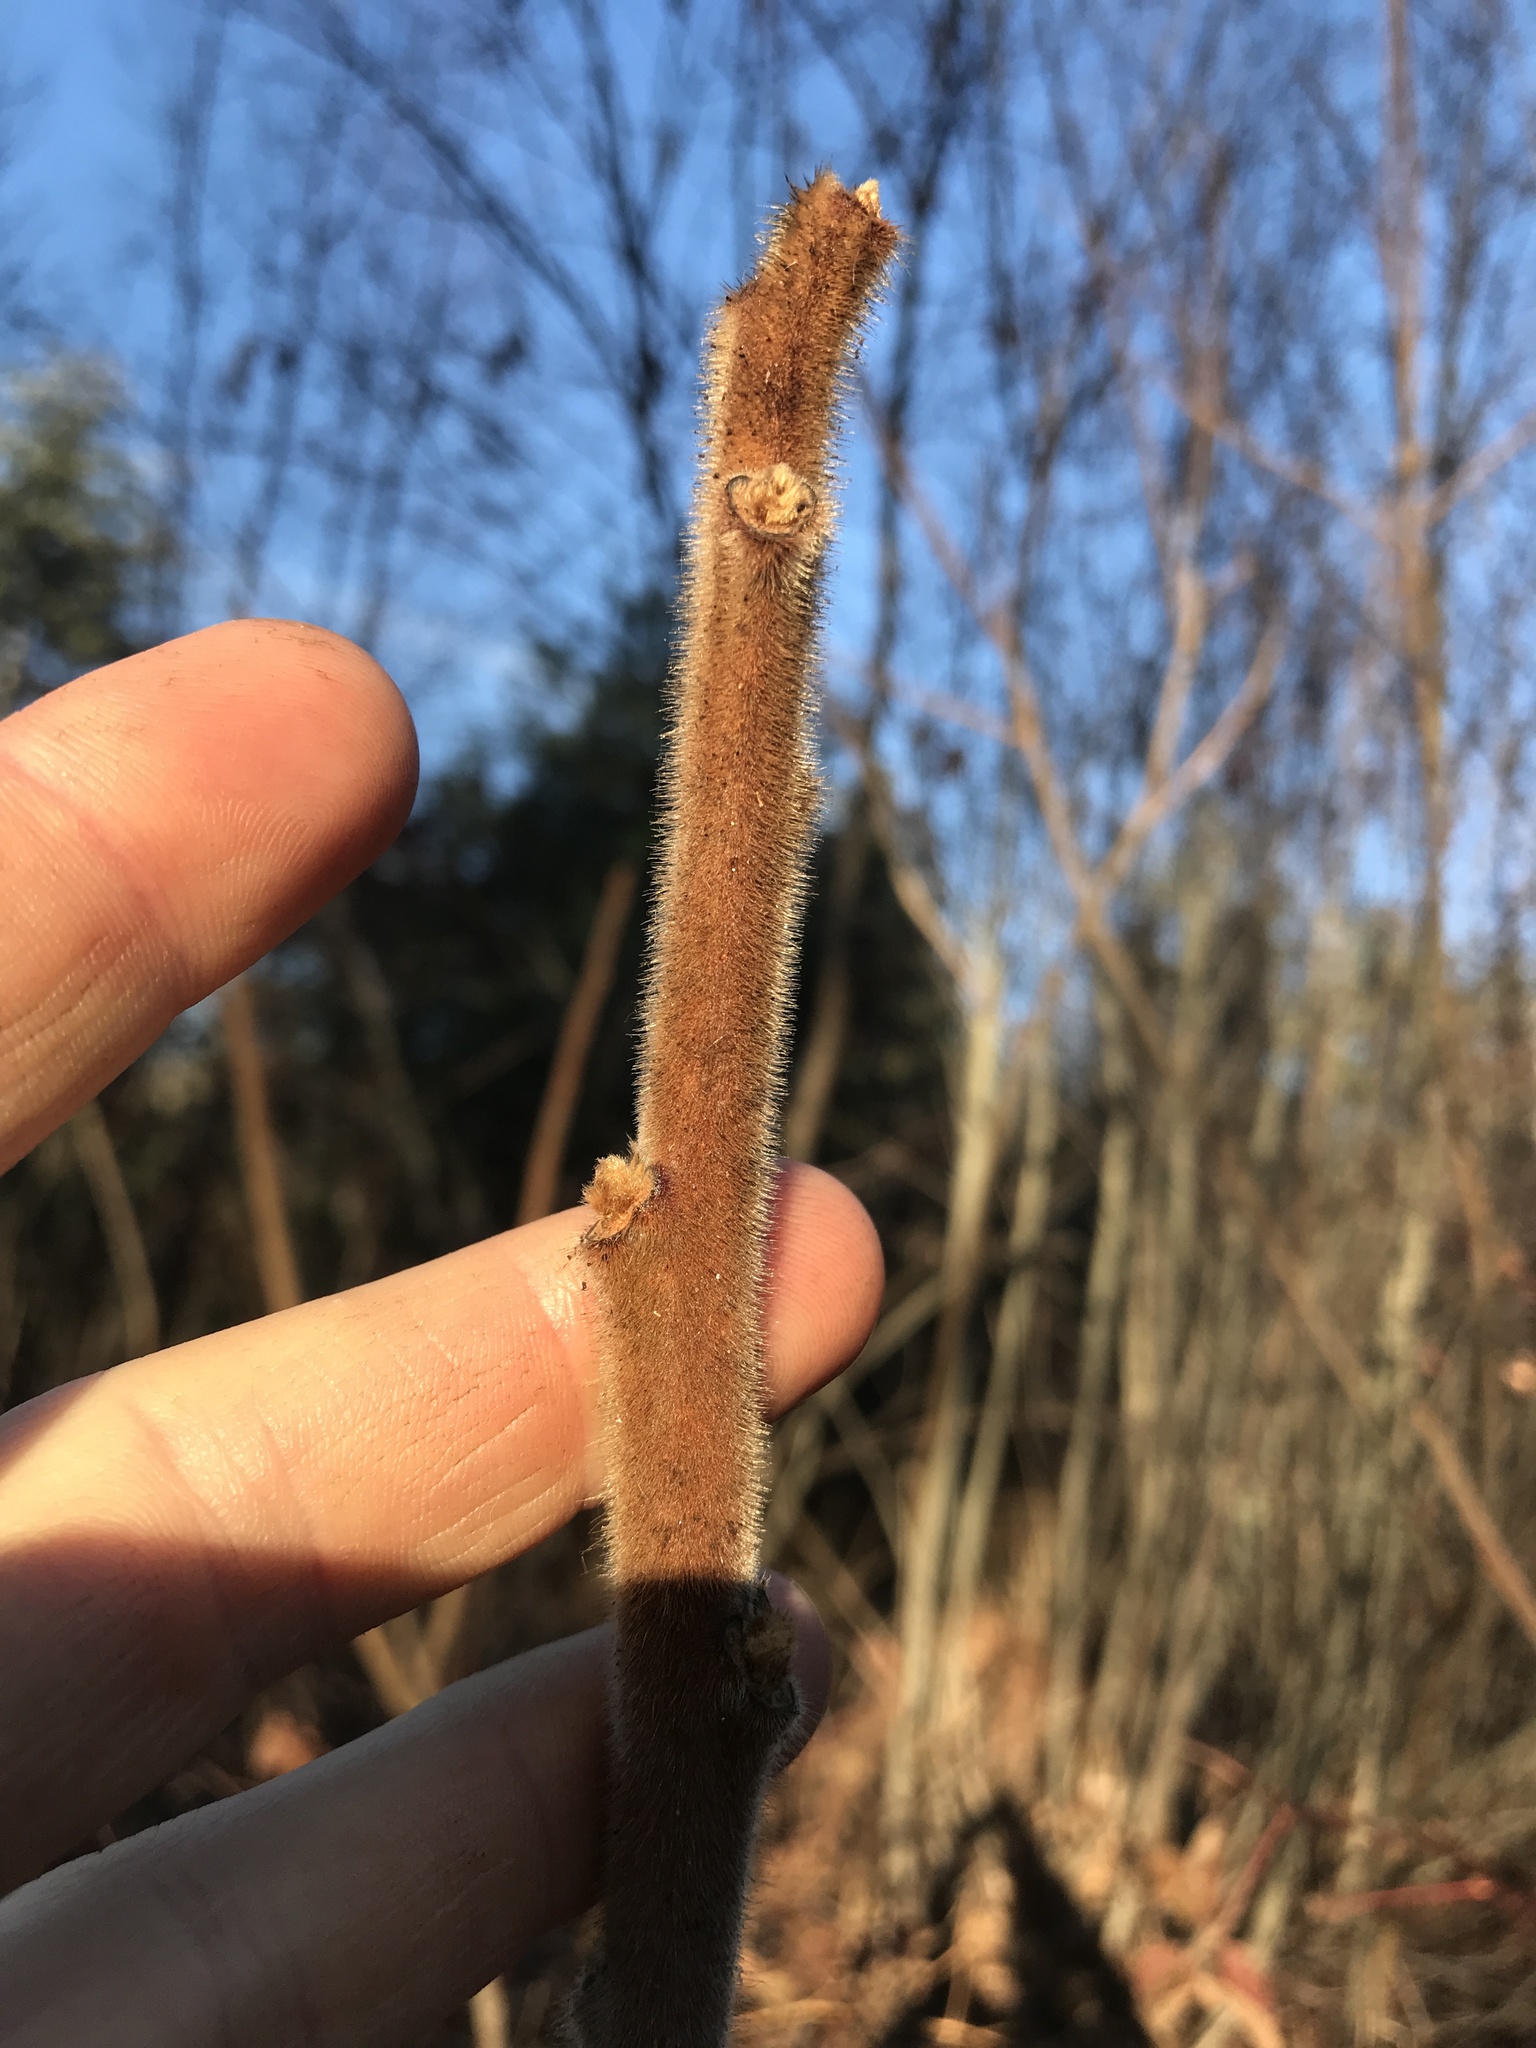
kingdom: Plantae
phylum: Tracheophyta
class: Magnoliopsida
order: Sapindales
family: Anacardiaceae
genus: Rhus
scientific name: Rhus typhina
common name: Staghorn sumac
